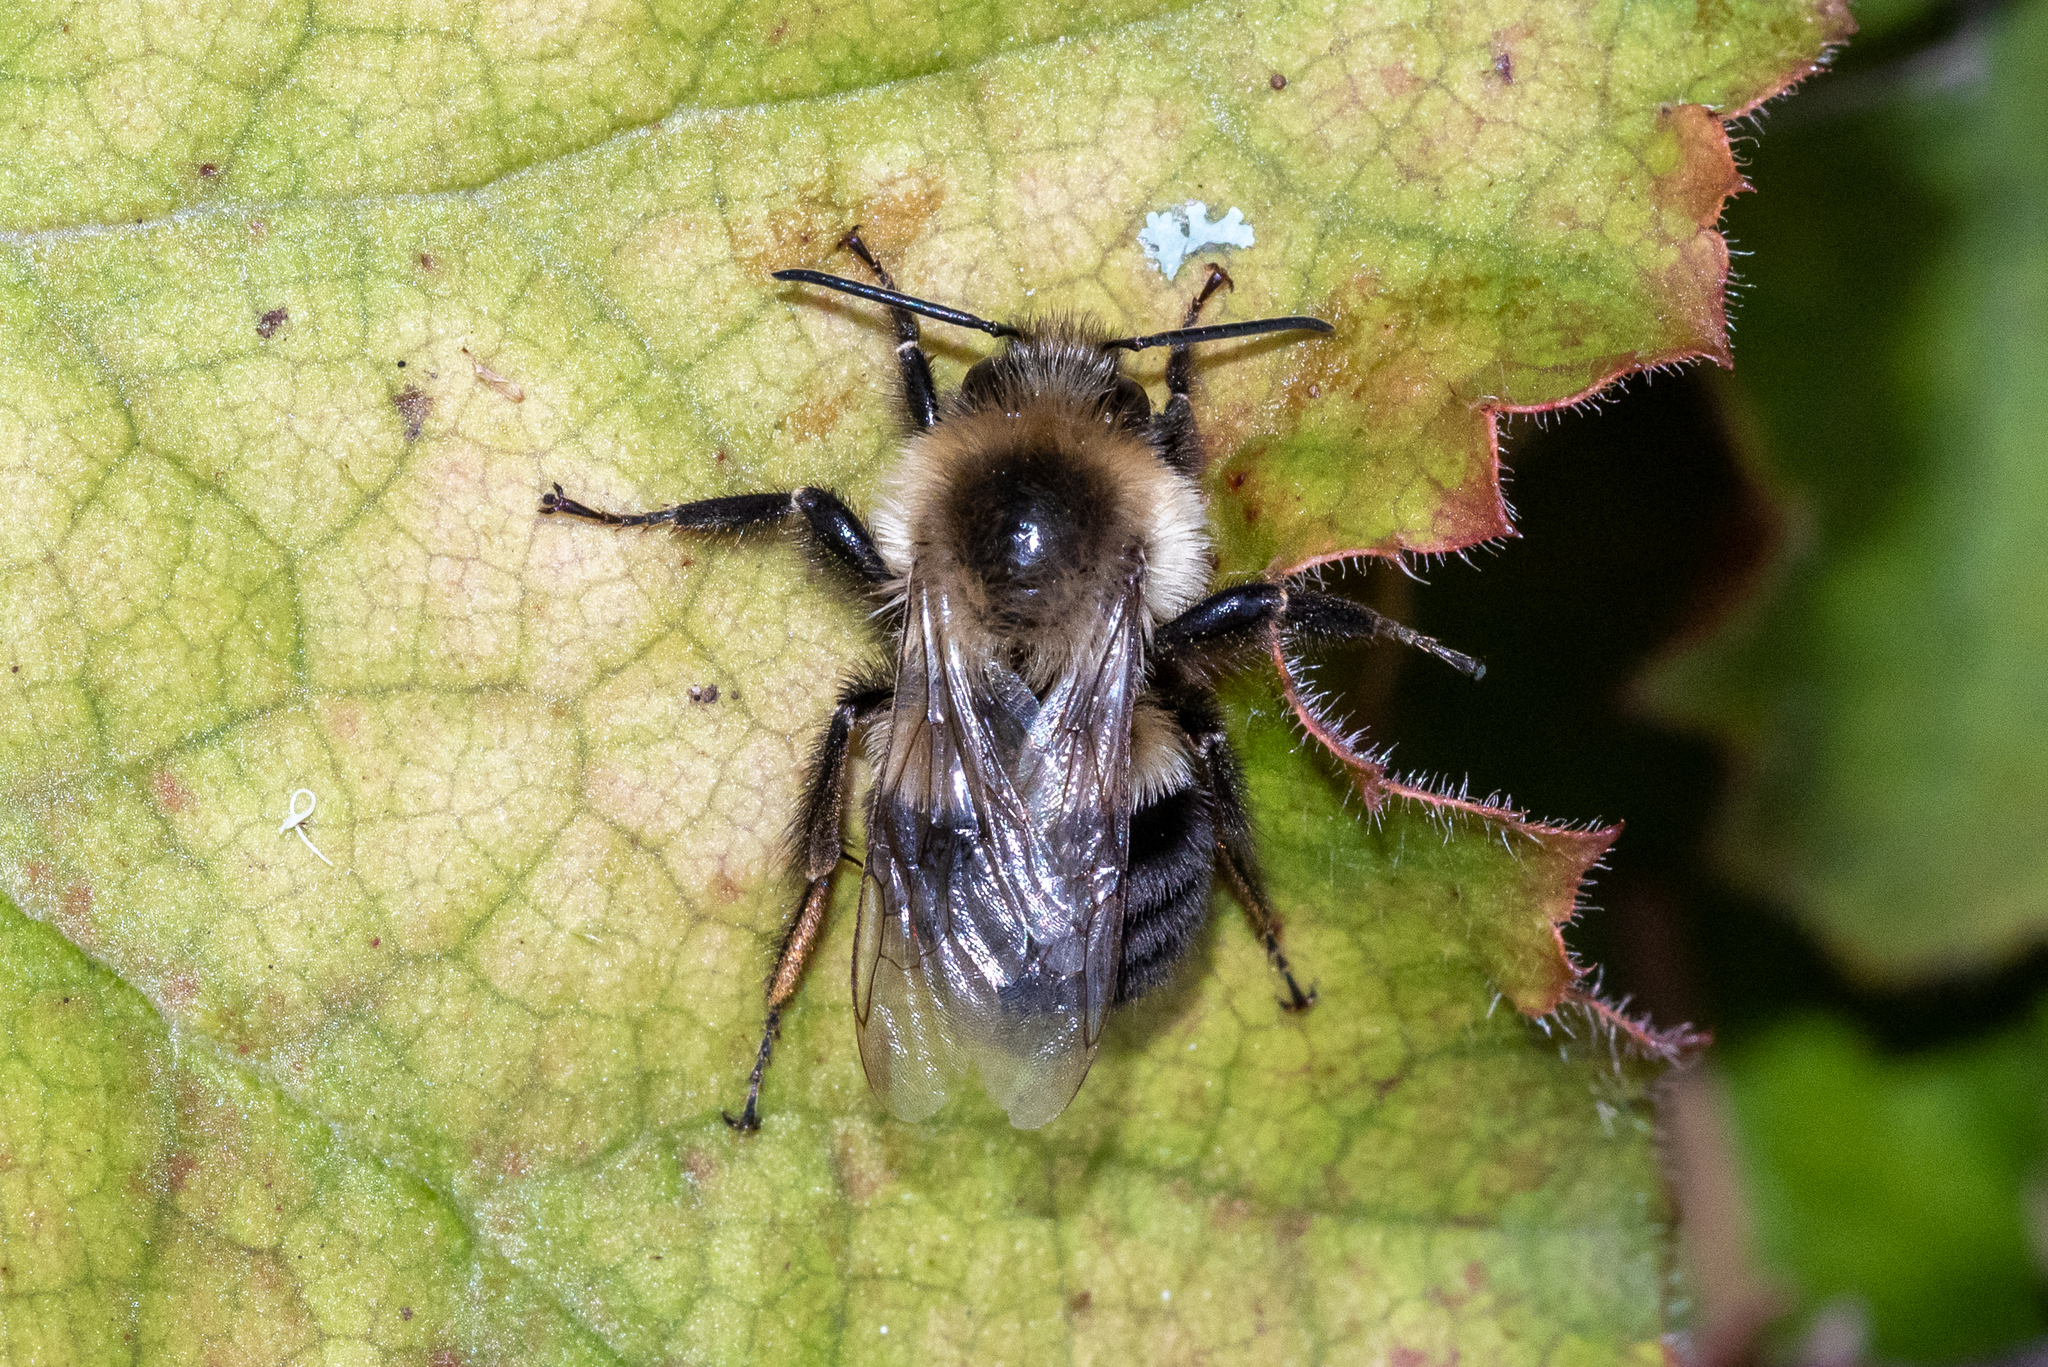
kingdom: Animalia
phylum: Arthropoda
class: Insecta
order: Hymenoptera
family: Apidae
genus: Bombus
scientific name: Bombus impatiens
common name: Common eastern bumble bee
